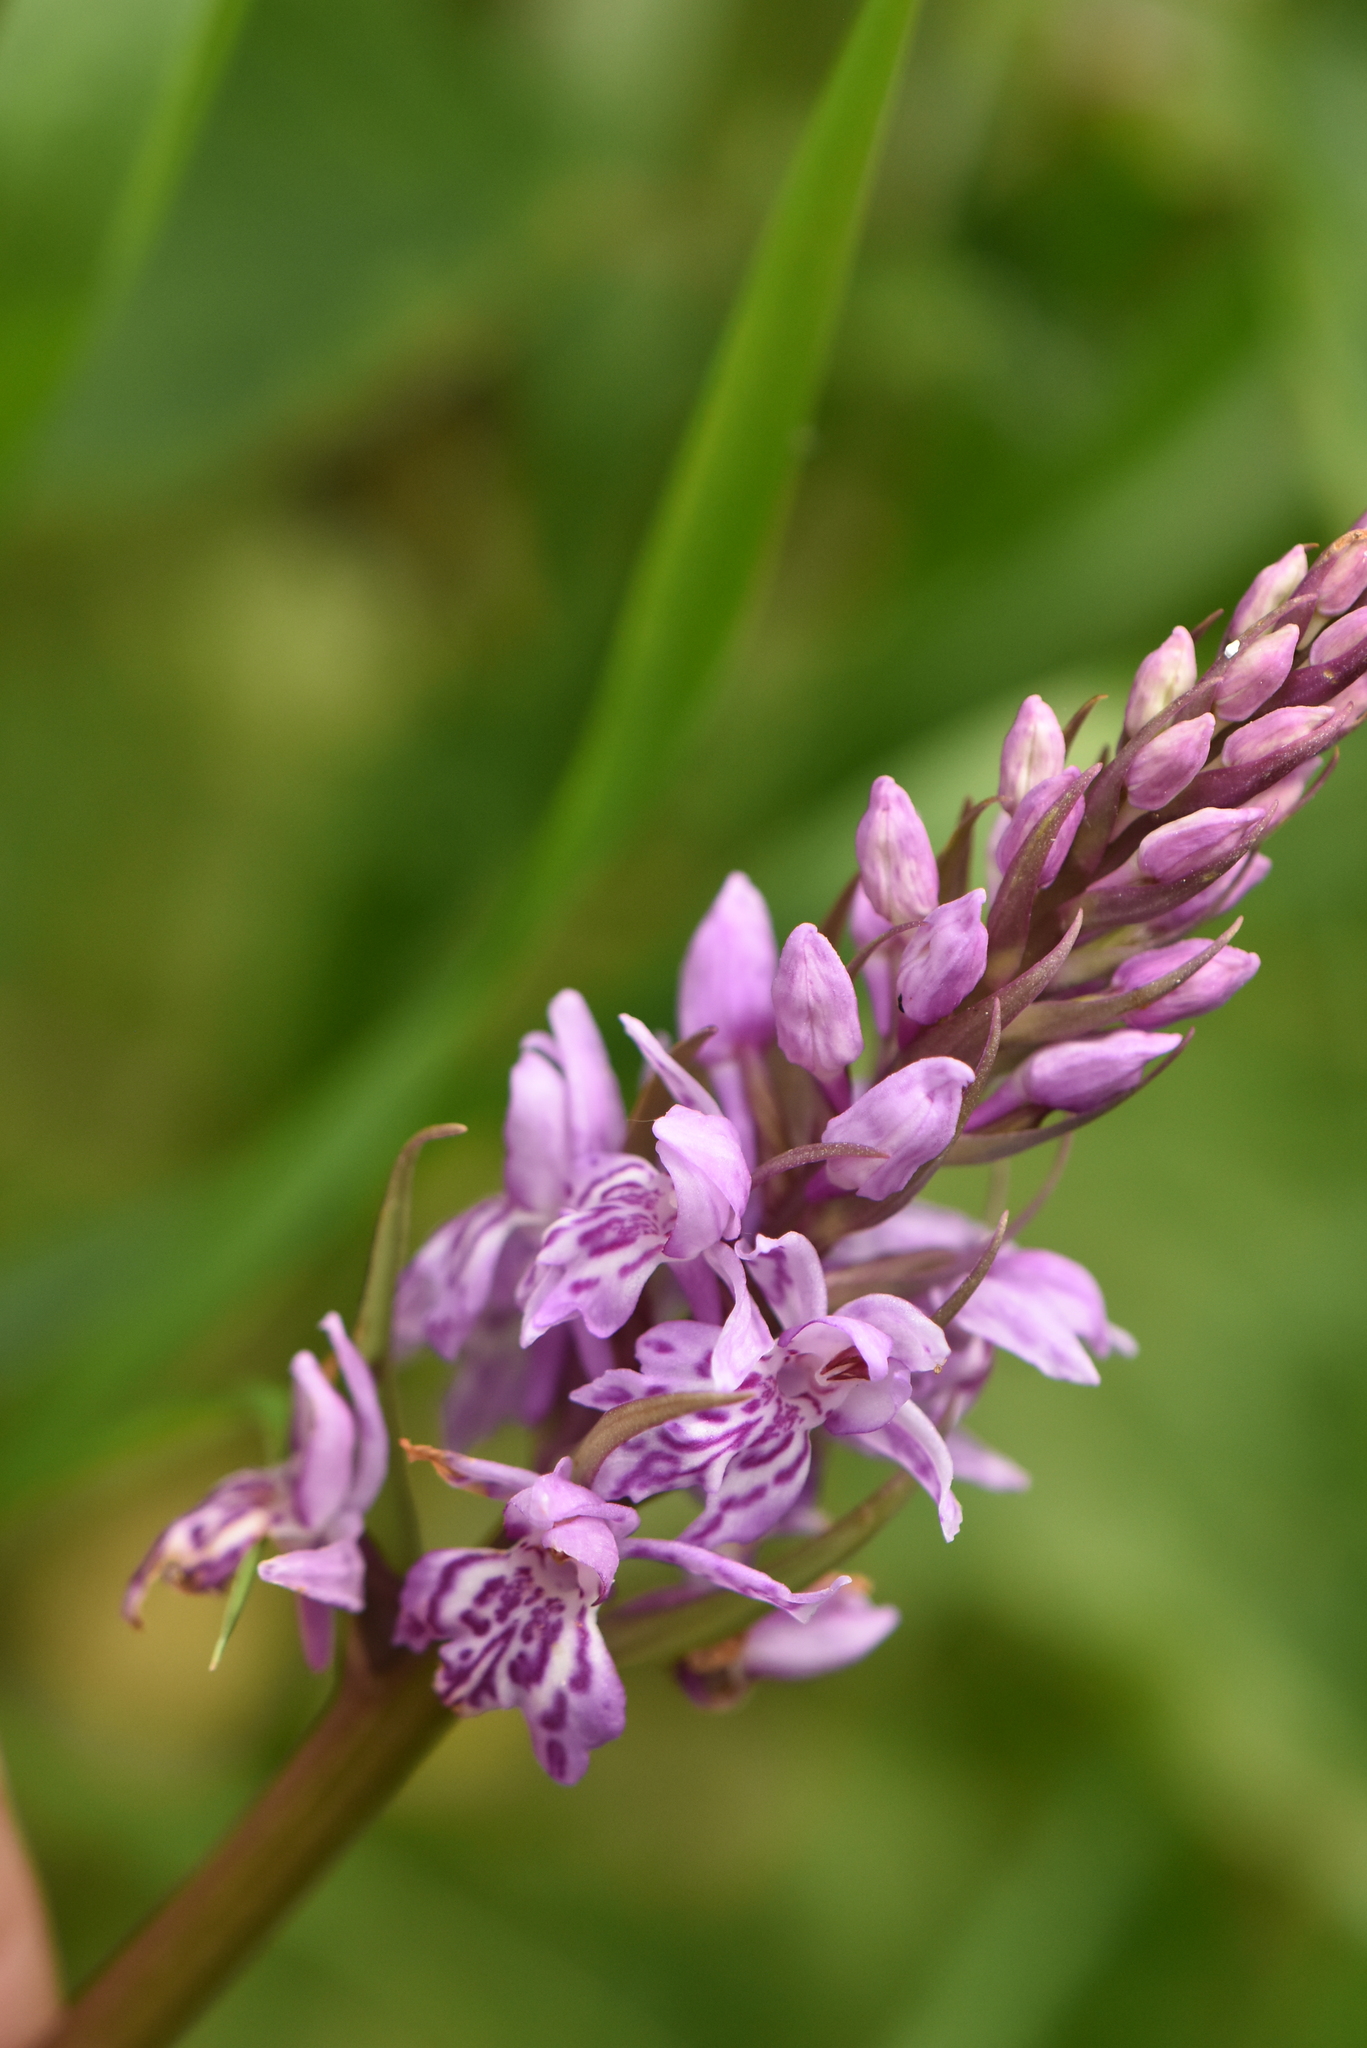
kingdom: Plantae
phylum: Tracheophyta
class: Liliopsida
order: Asparagales
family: Orchidaceae
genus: Dactylorhiza
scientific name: Dactylorhiza maculata
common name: Heath spotted-orchid
